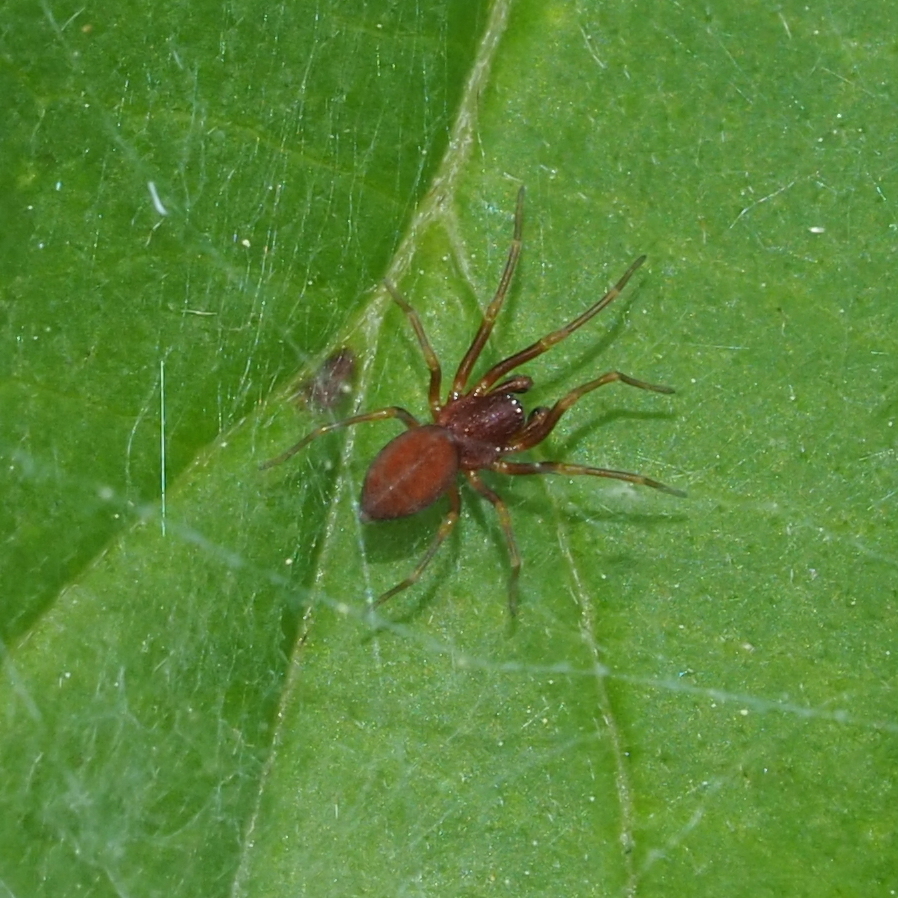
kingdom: Animalia
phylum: Arthropoda
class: Arachnida
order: Araneae
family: Dictynidae
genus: Nigma
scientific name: Nigma flavescens
